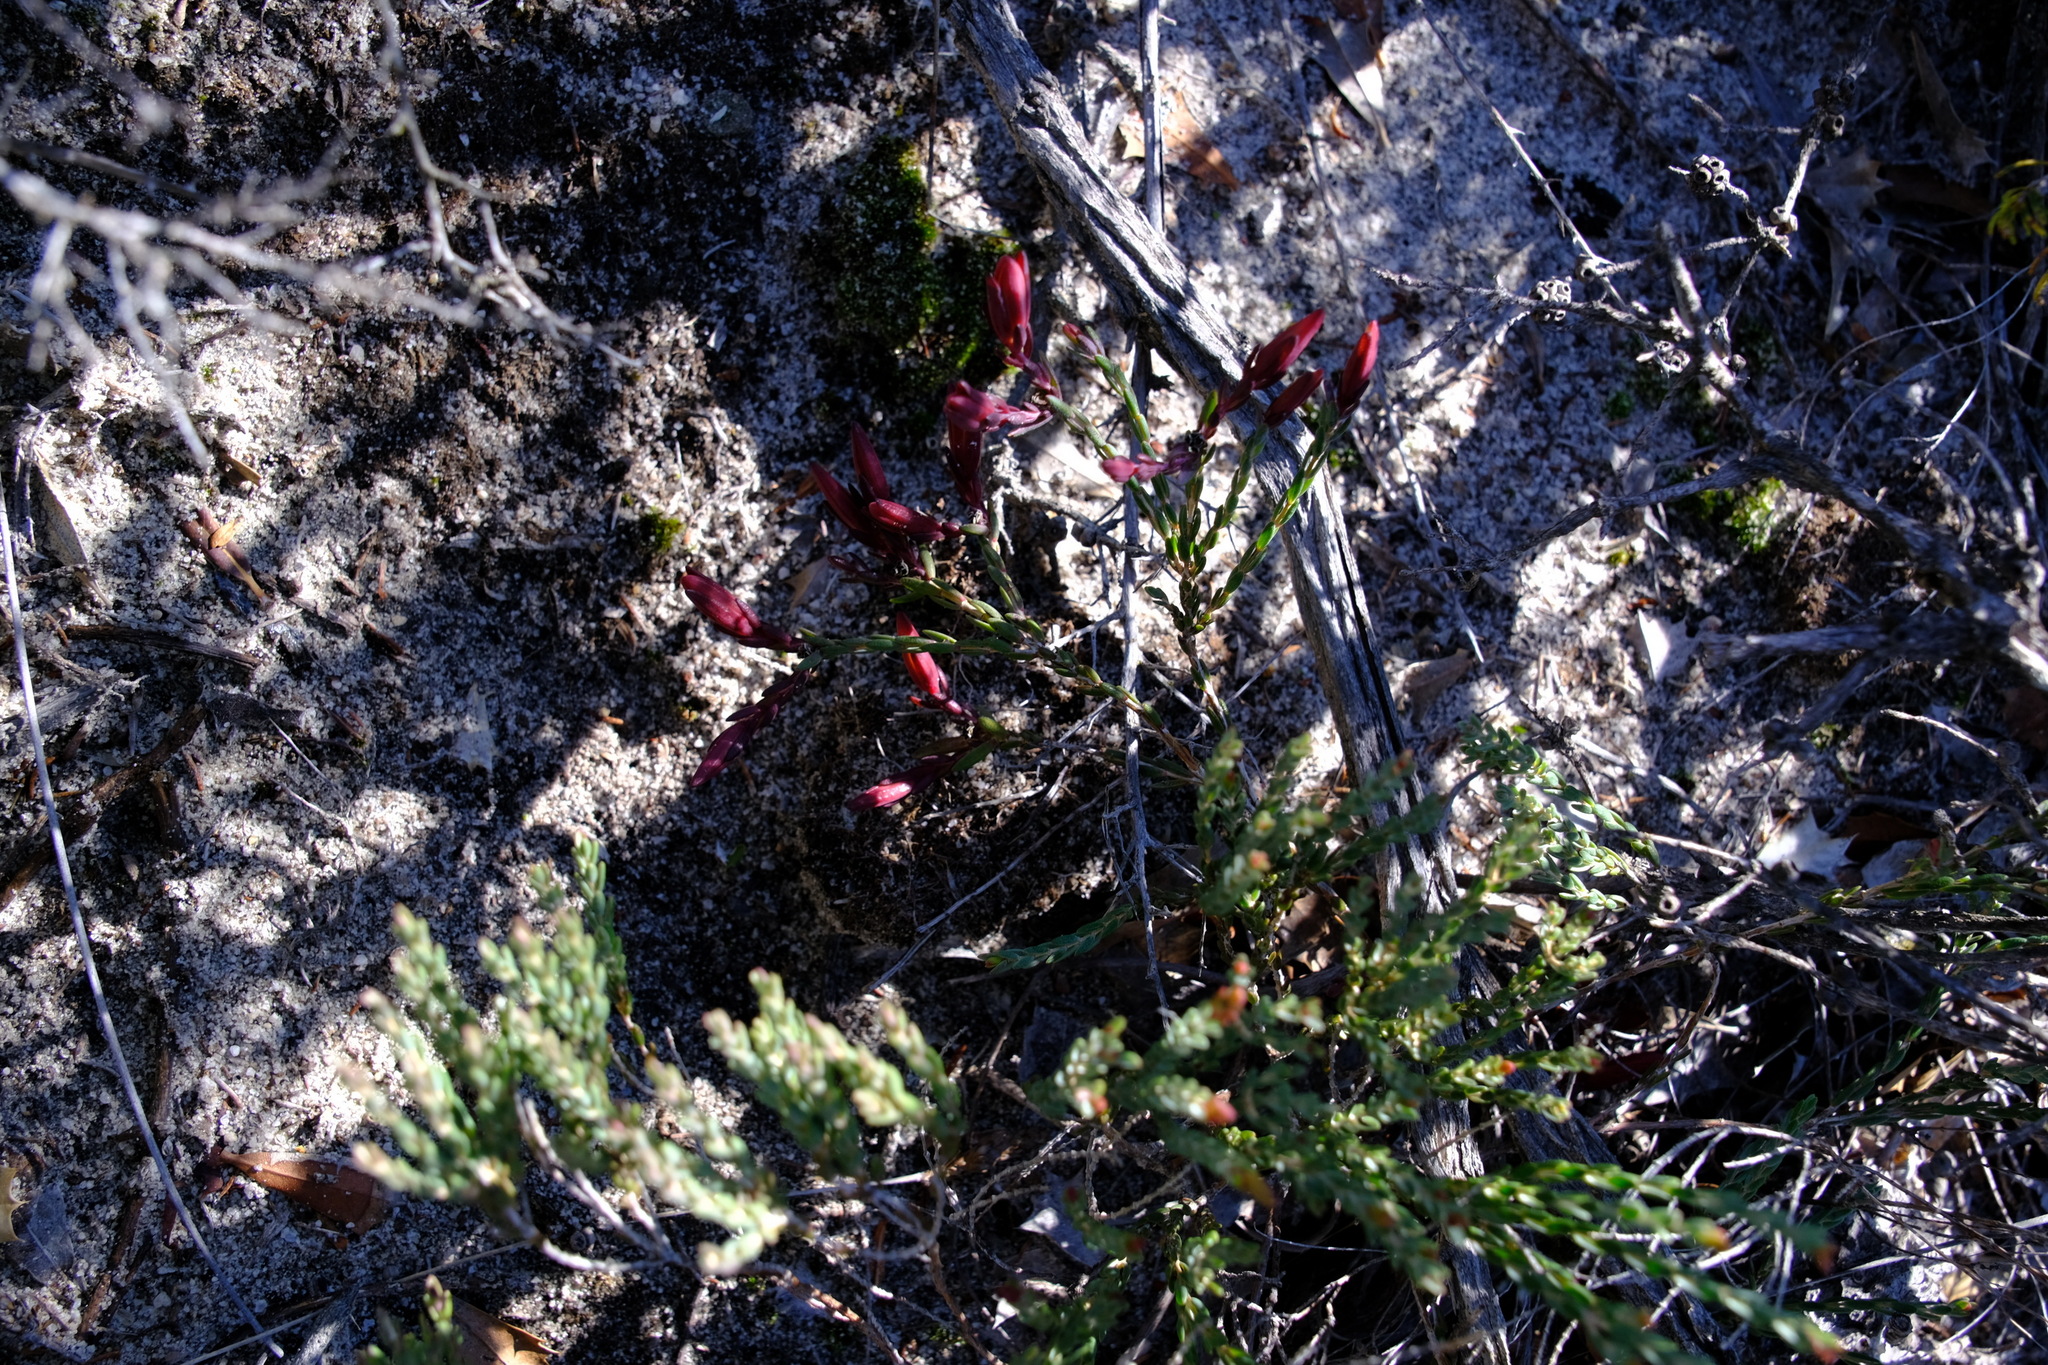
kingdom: Plantae
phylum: Tracheophyta
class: Magnoliopsida
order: Myrtales
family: Myrtaceae
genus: Darwinia
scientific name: Darwinia speciosa
